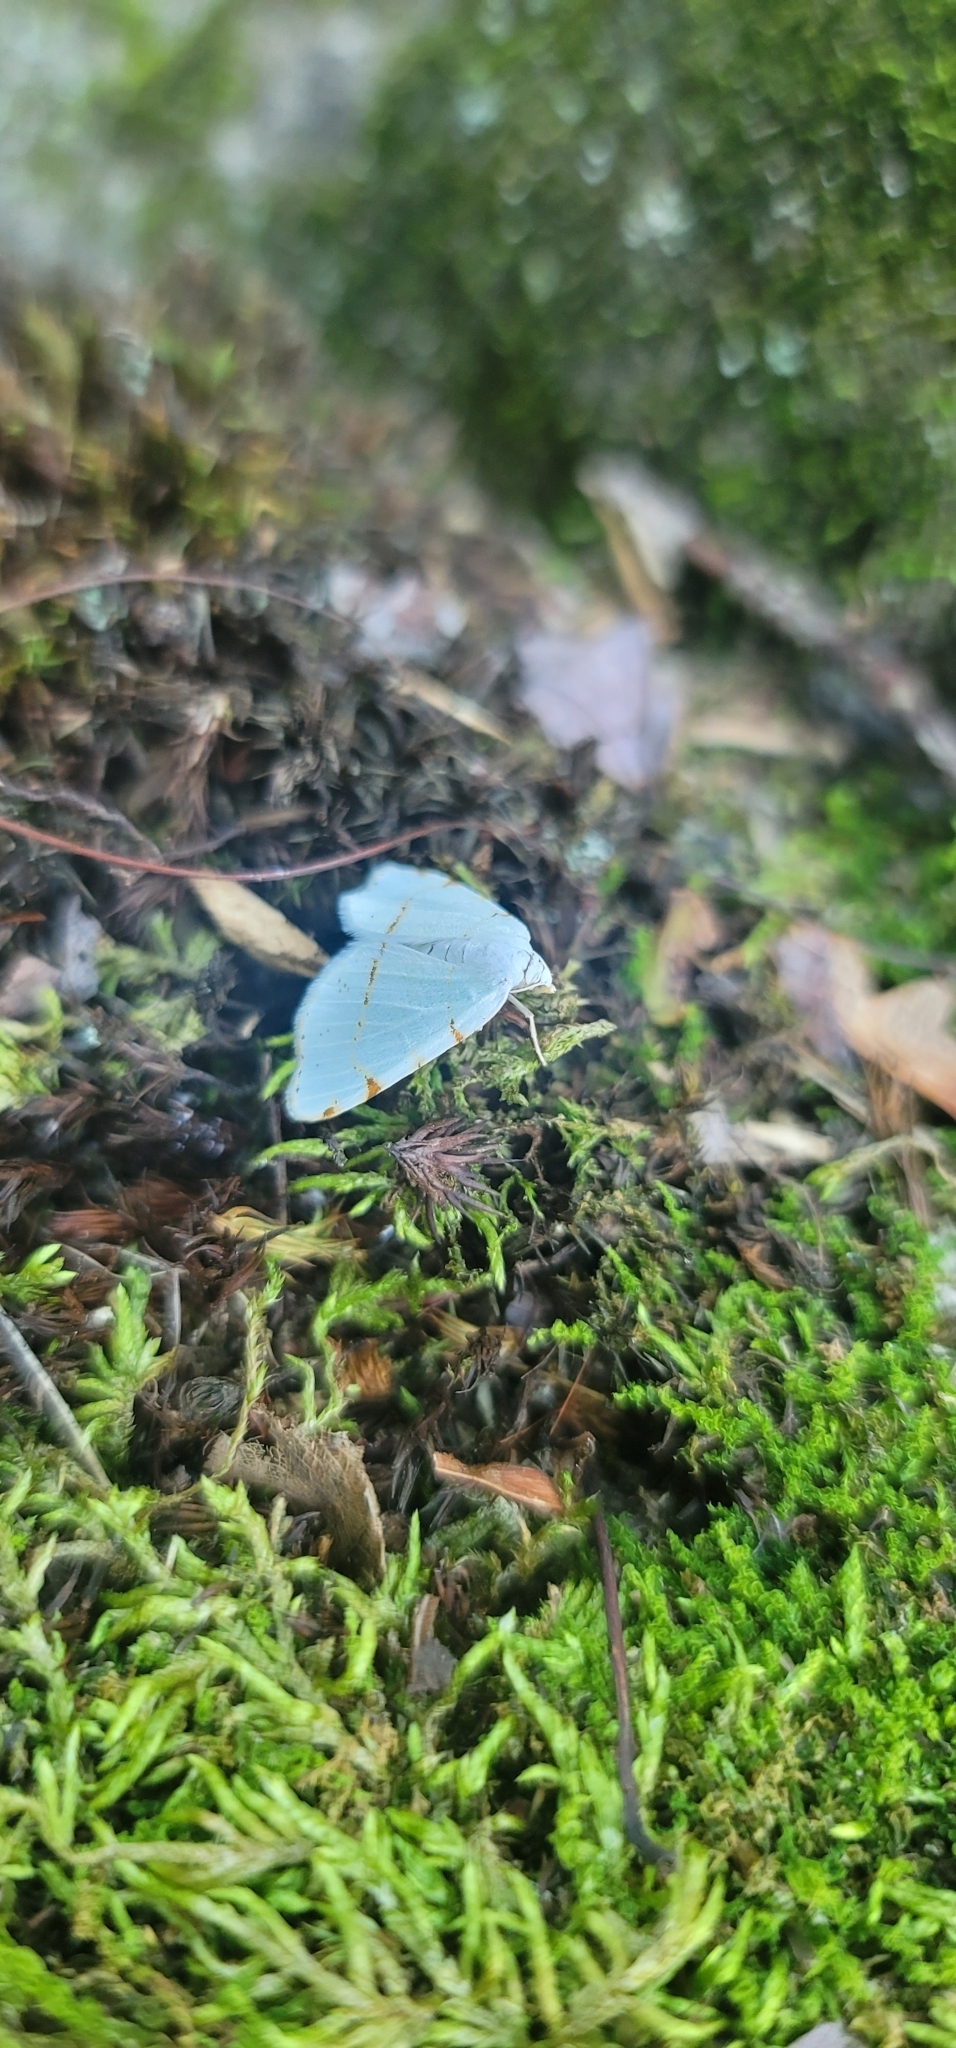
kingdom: Animalia
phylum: Arthropoda
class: Insecta
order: Lepidoptera
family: Geometridae
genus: Macaria
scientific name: Macaria pustularia
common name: Lesser maple spanworm moth
